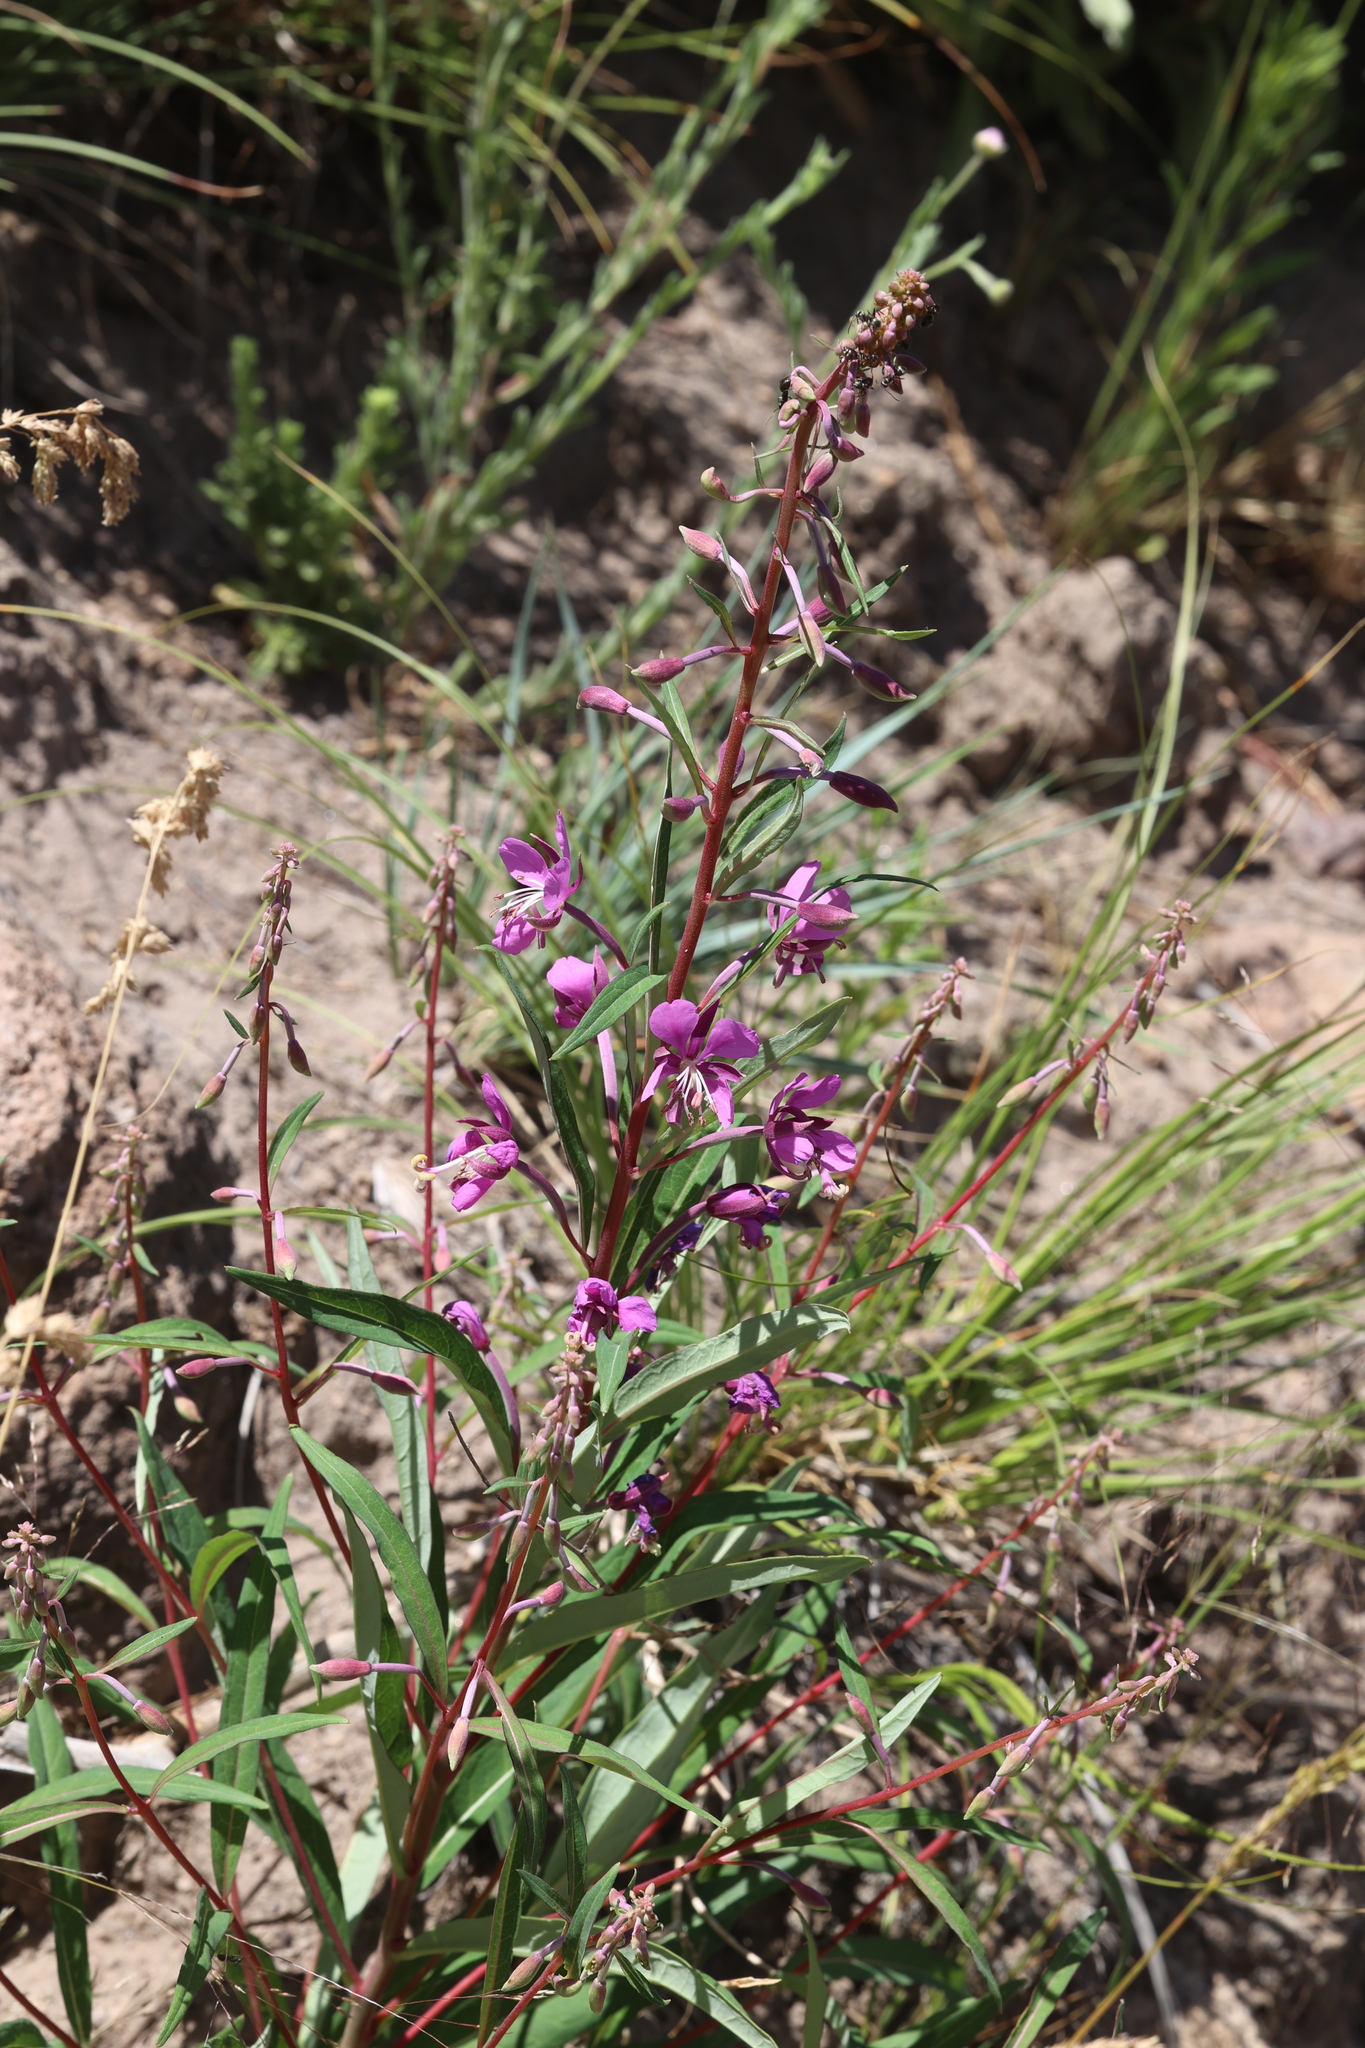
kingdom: Plantae
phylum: Tracheophyta
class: Magnoliopsida
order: Myrtales
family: Onagraceae
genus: Chamaenerion
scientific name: Chamaenerion angustifolium
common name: Fireweed
